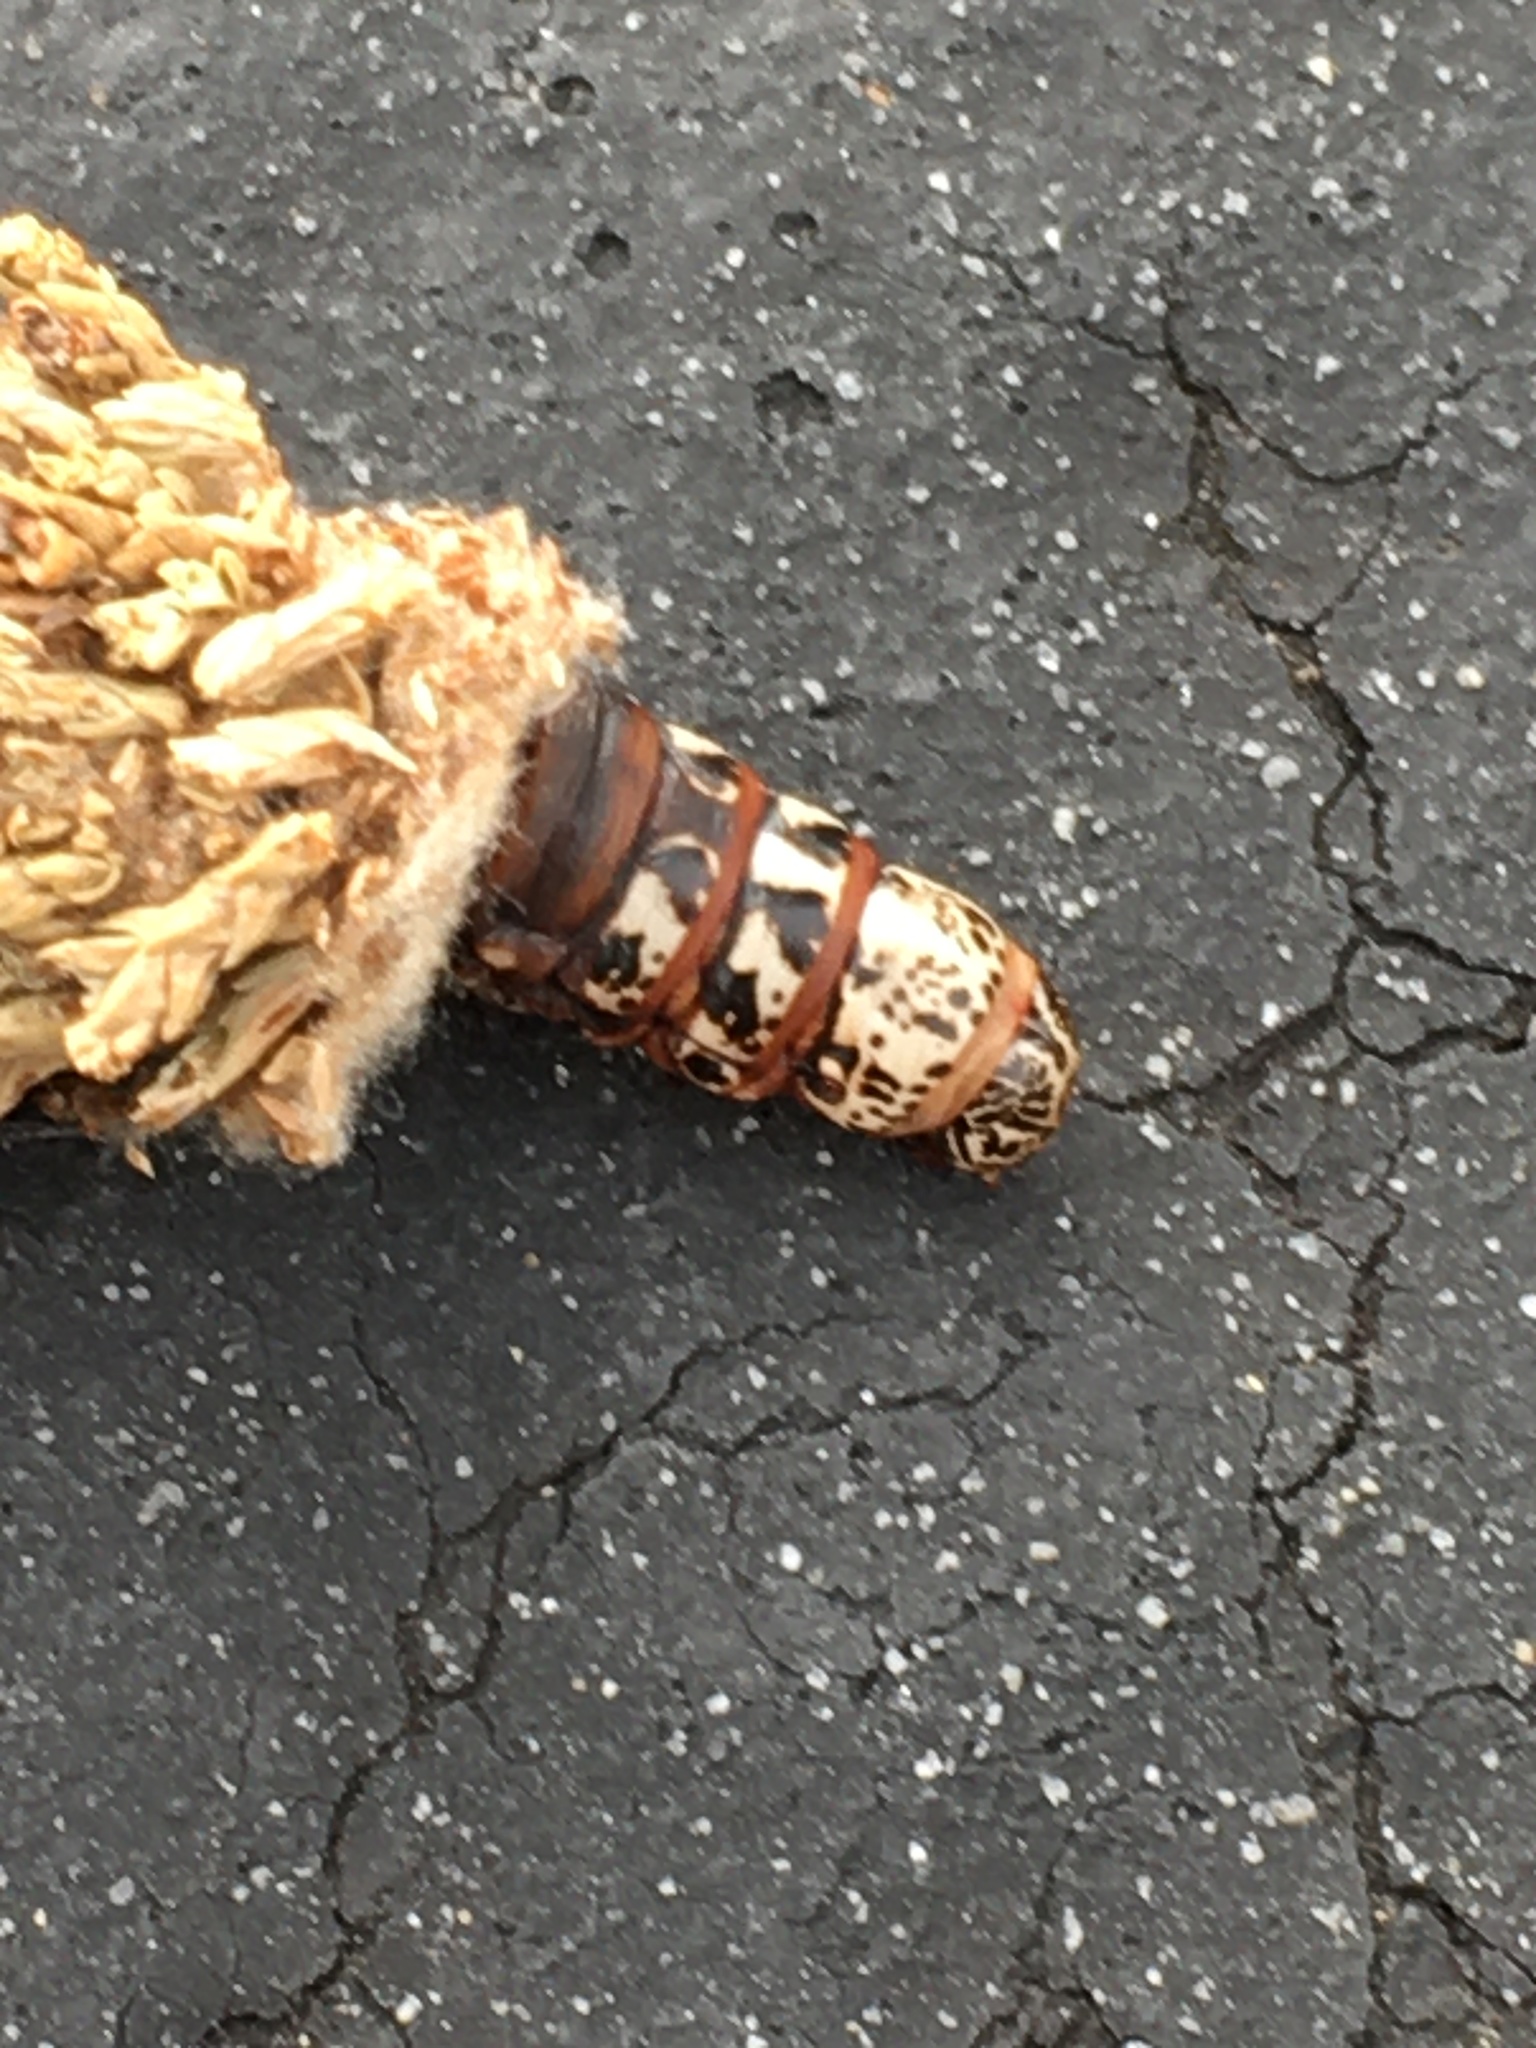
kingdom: Animalia
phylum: Arthropoda
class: Insecta
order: Lepidoptera
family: Psychidae
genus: Thyridopteryx
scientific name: Thyridopteryx ephemeraeformis
